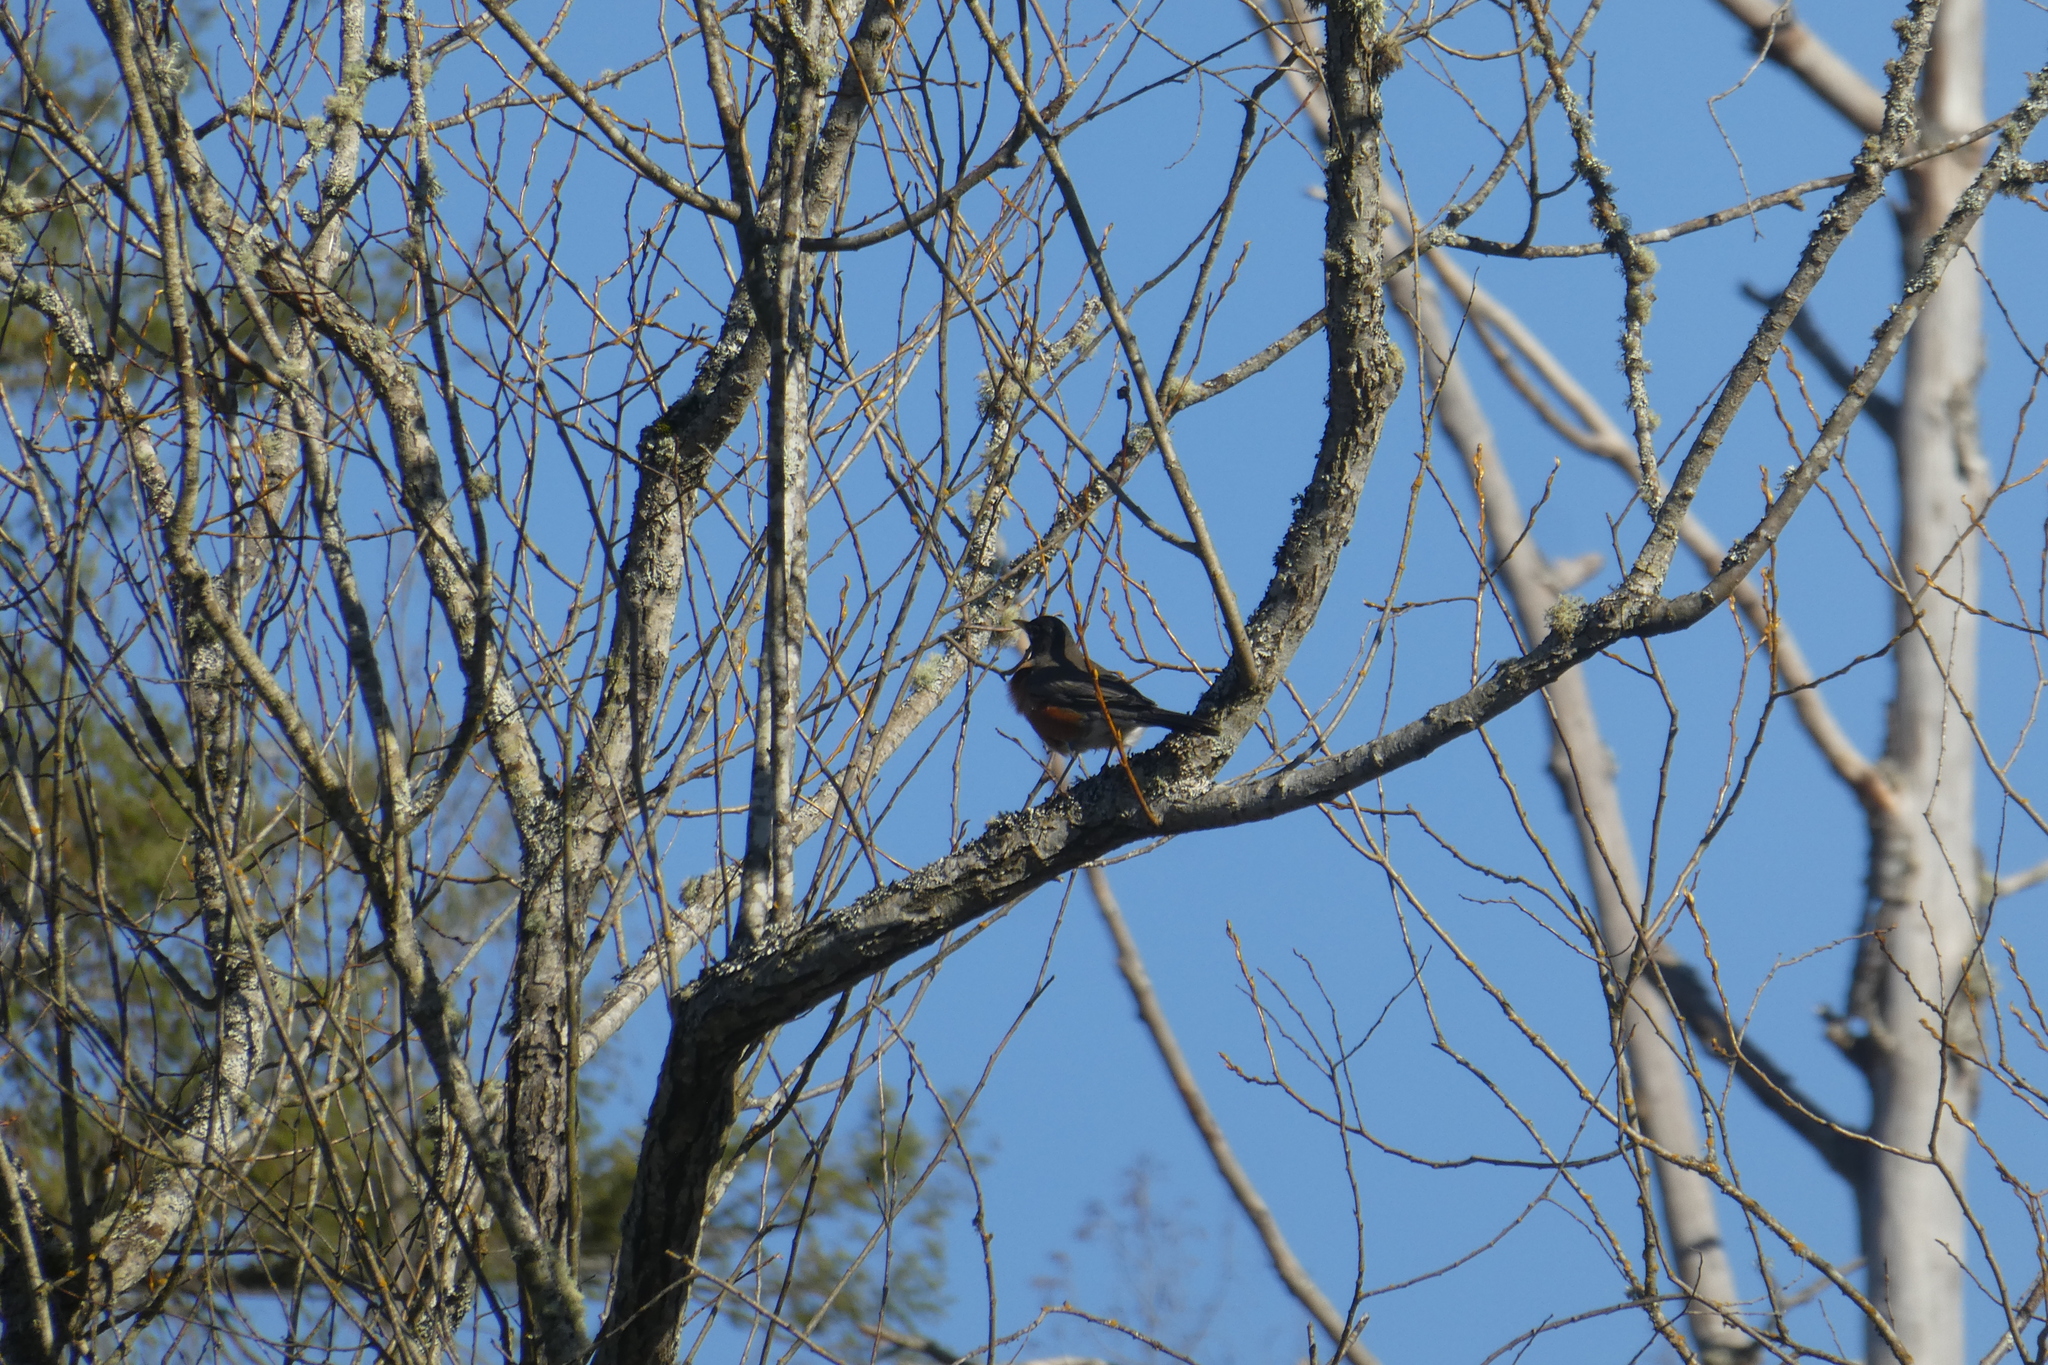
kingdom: Animalia
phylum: Chordata
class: Aves
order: Passeriformes
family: Turdidae
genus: Turdus
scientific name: Turdus migratorius
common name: American robin
